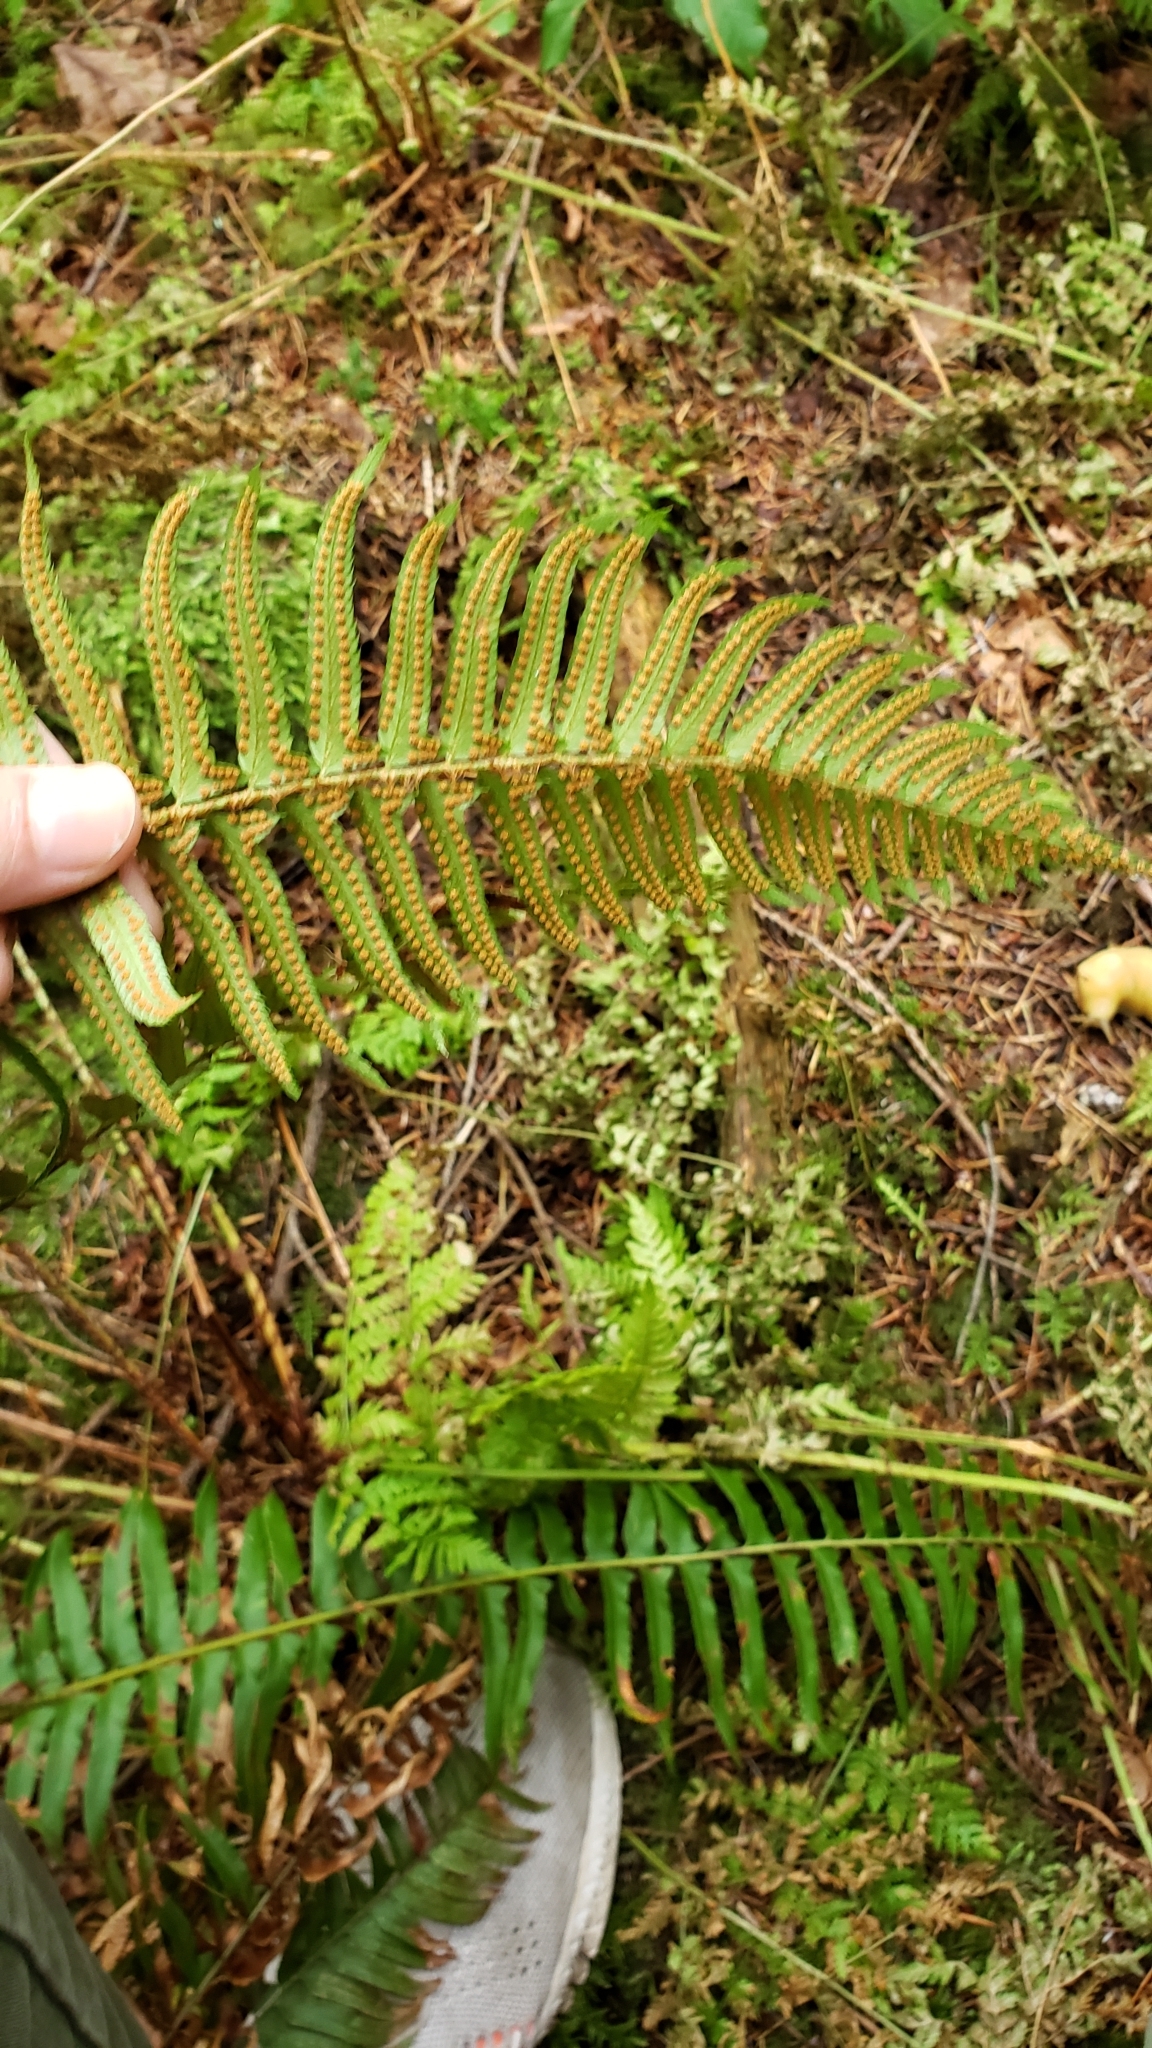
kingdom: Plantae
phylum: Tracheophyta
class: Polypodiopsida
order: Polypodiales
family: Dryopteridaceae
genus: Polystichum
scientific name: Polystichum munitum
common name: Western sword-fern
